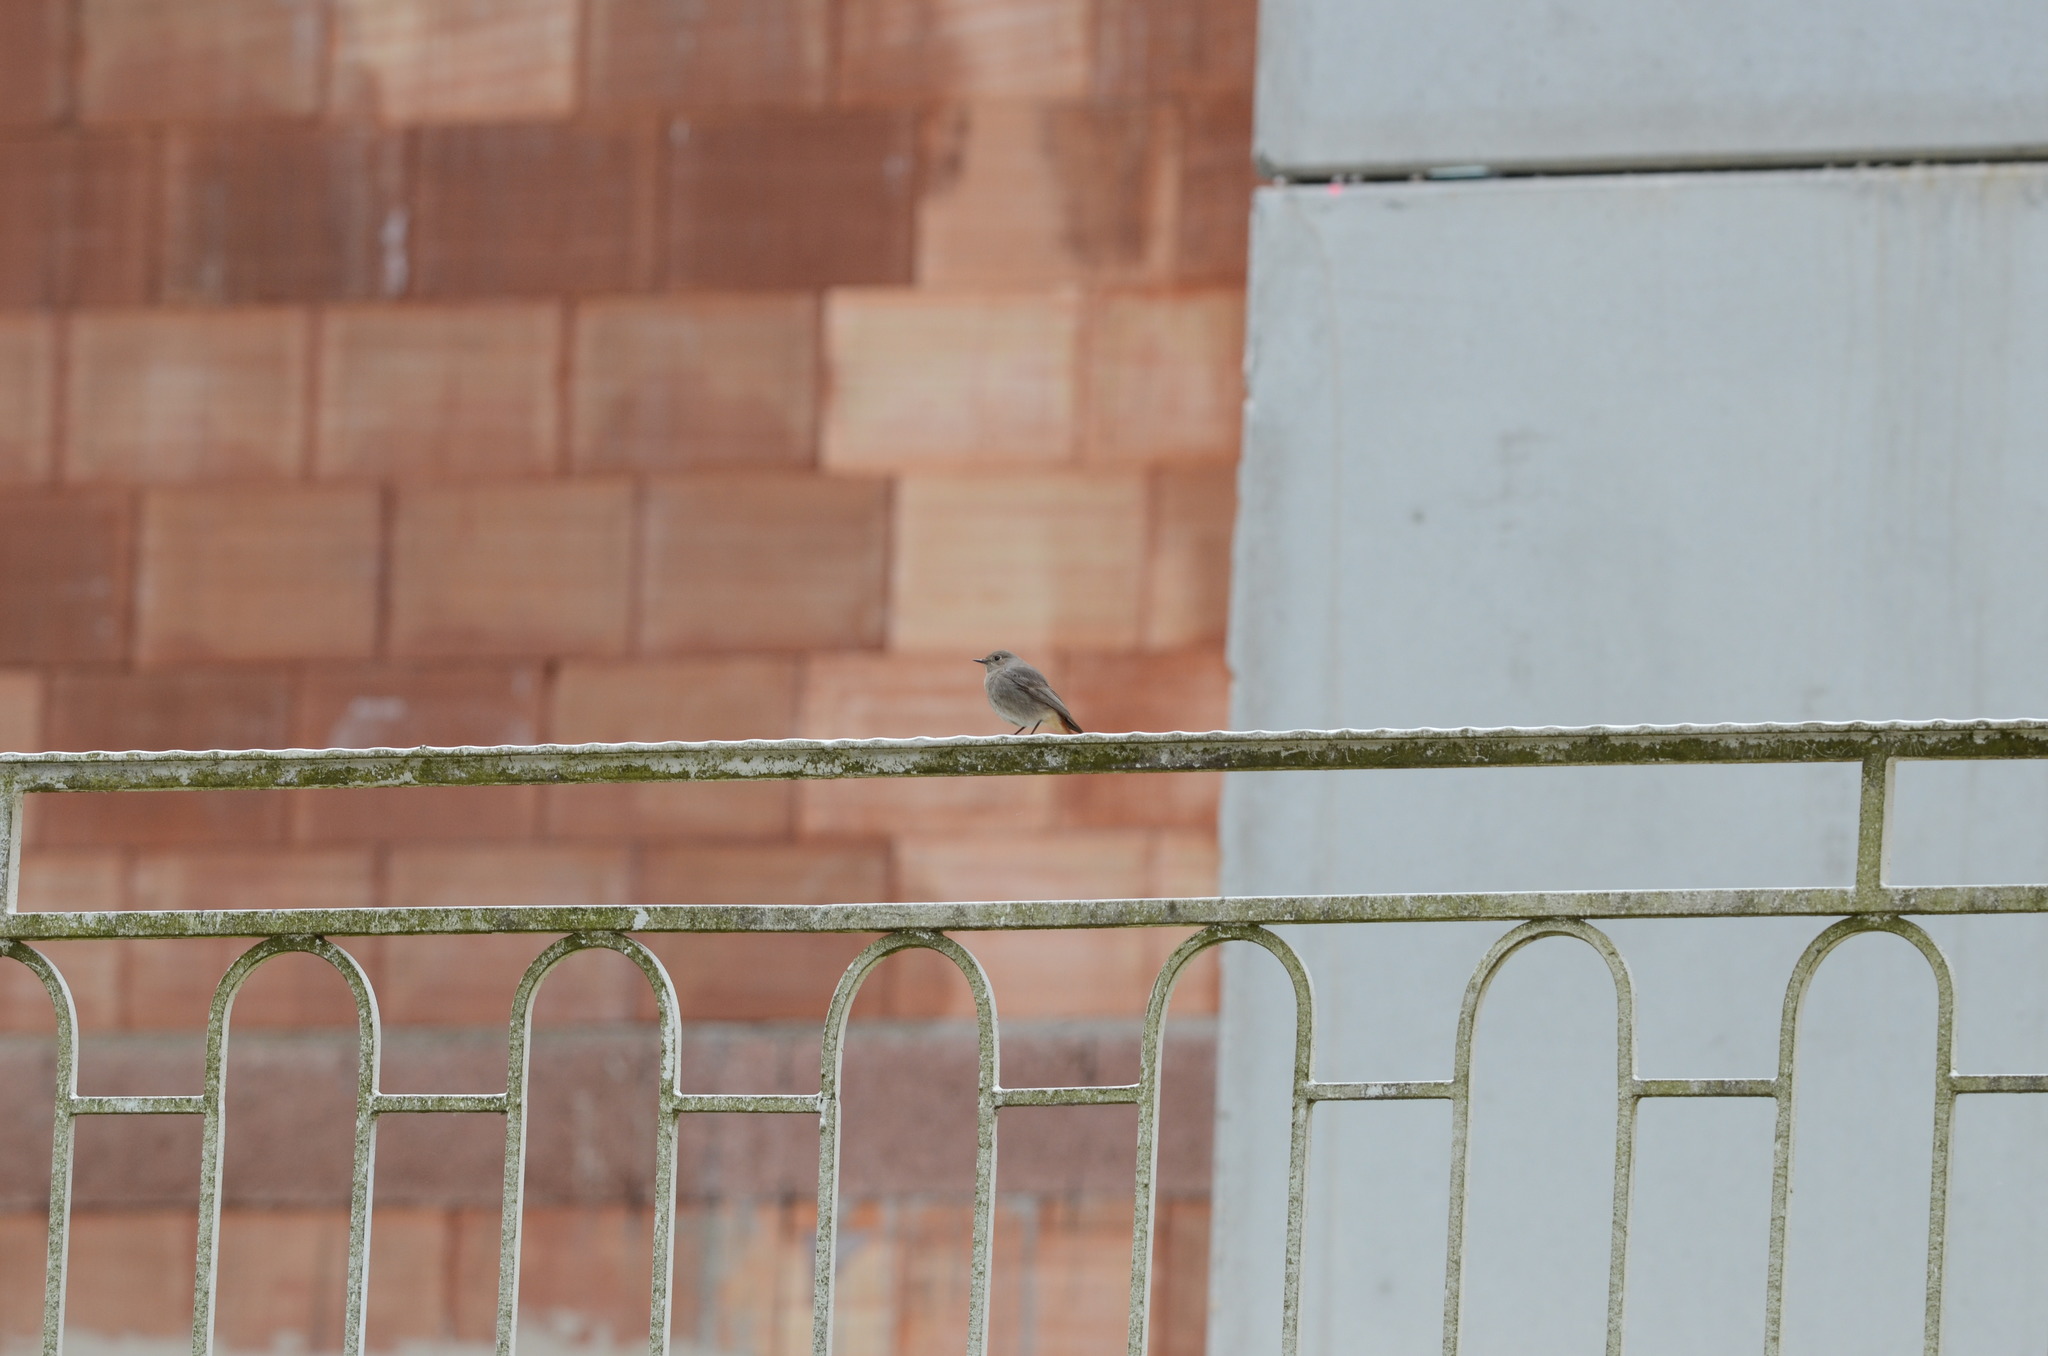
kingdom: Animalia
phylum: Chordata
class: Aves
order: Passeriformes
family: Muscicapidae
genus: Phoenicurus
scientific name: Phoenicurus ochruros
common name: Black redstart
